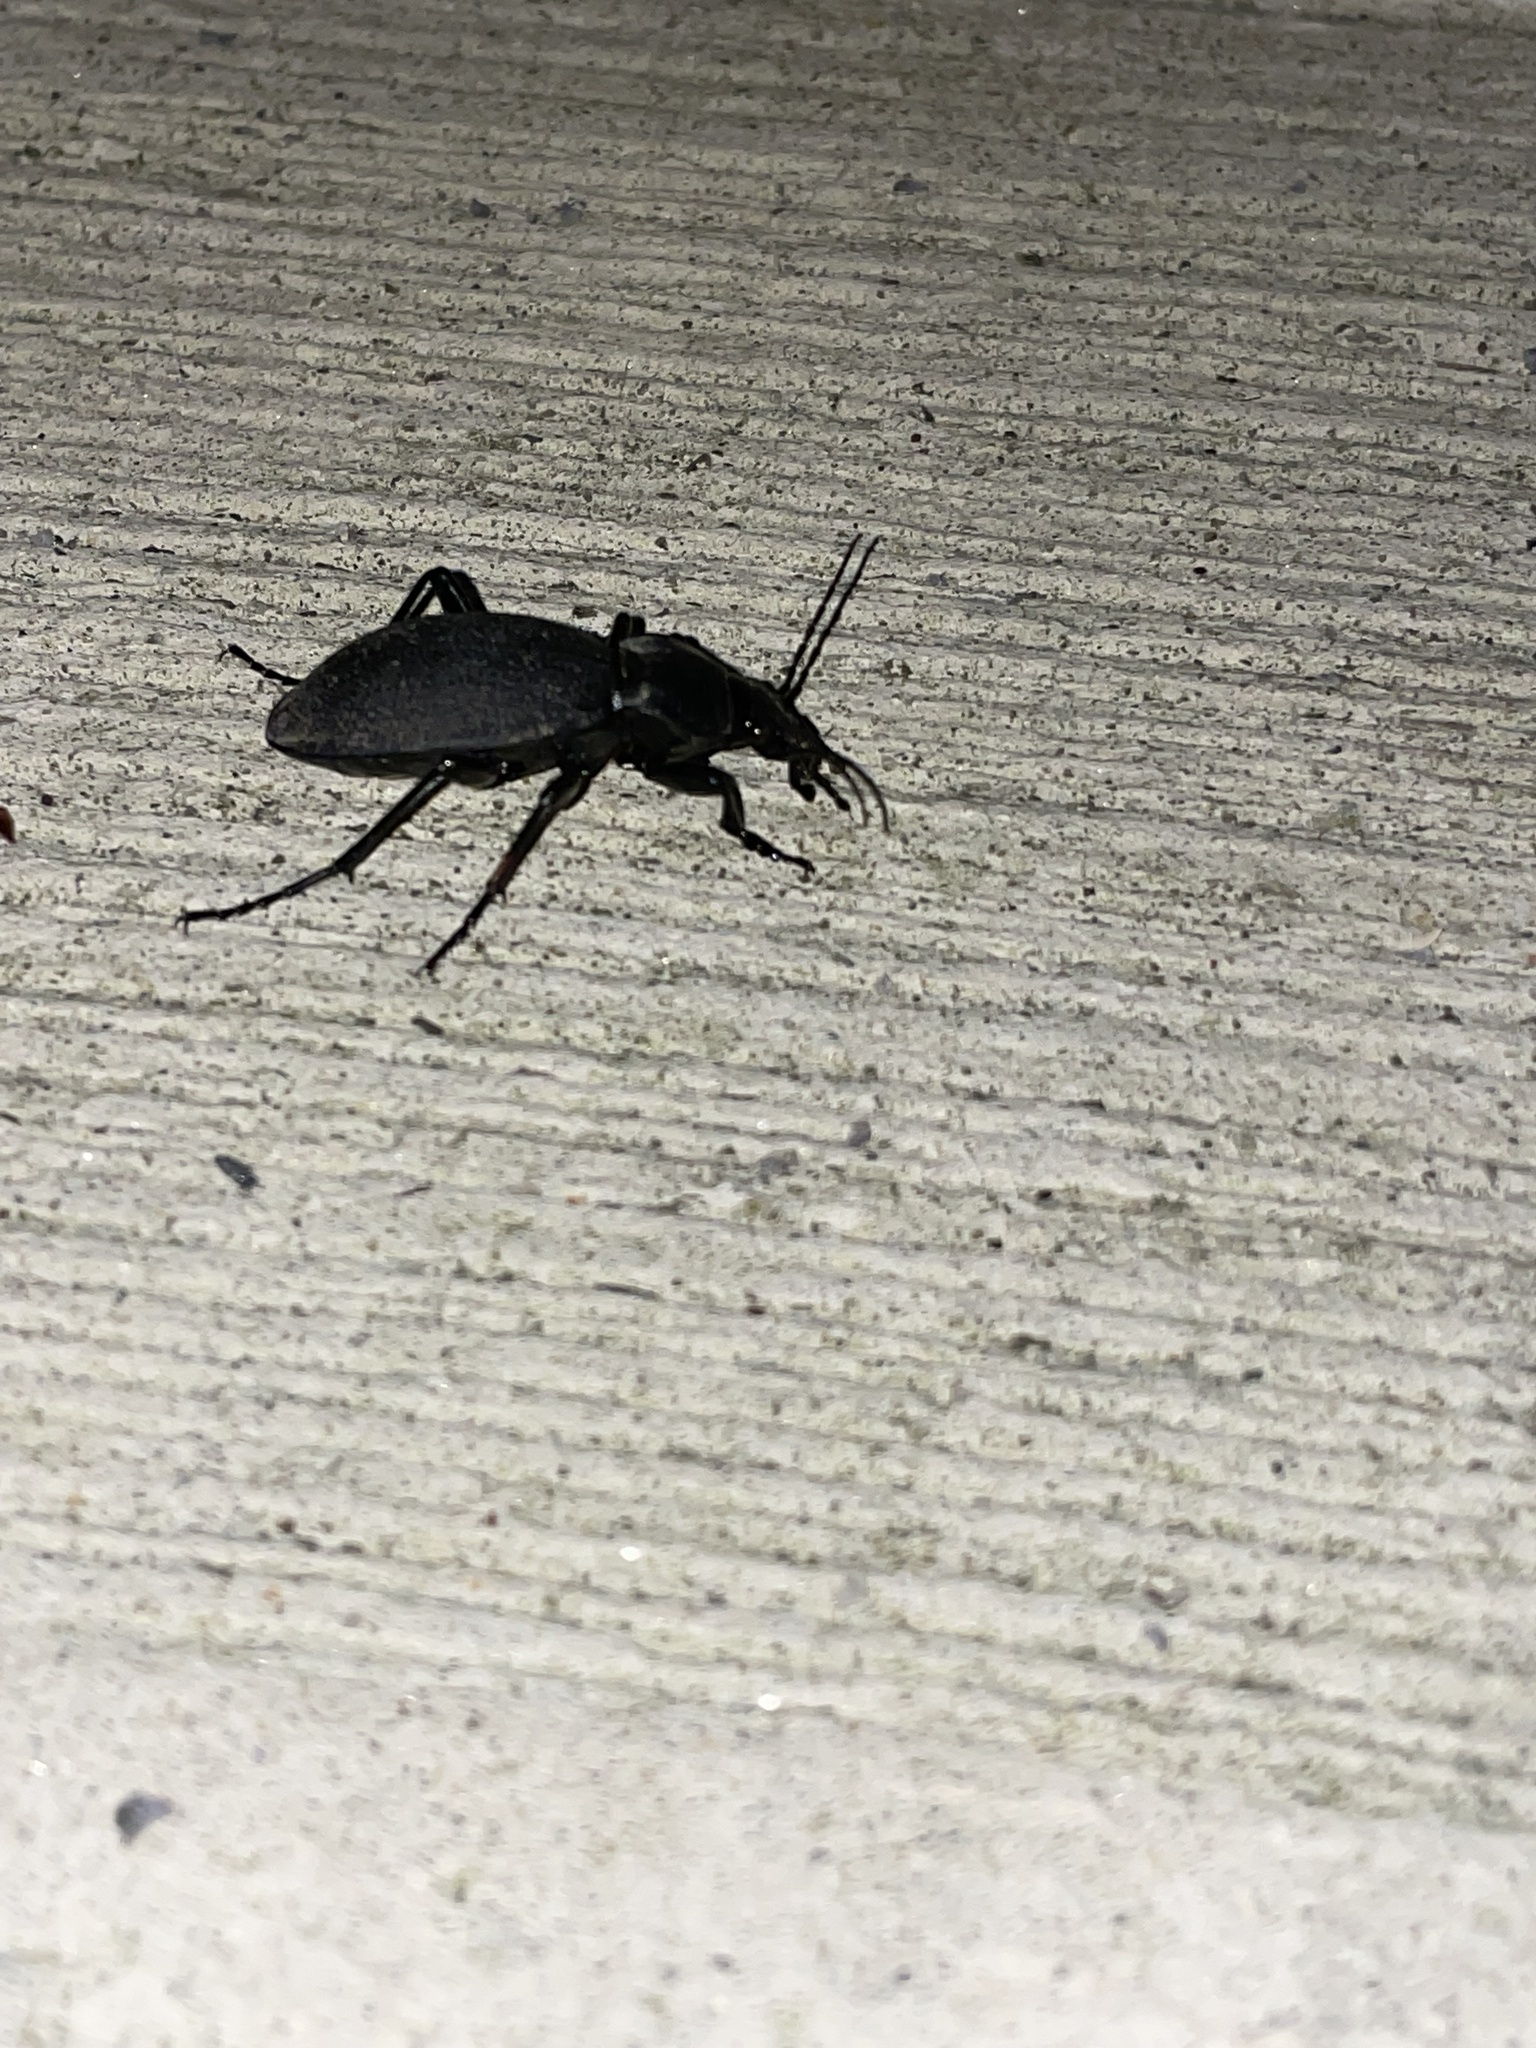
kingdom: Animalia
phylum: Arthropoda
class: Insecta
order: Coleoptera
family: Carabidae
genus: Carabus
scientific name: Carabus coriaceus
